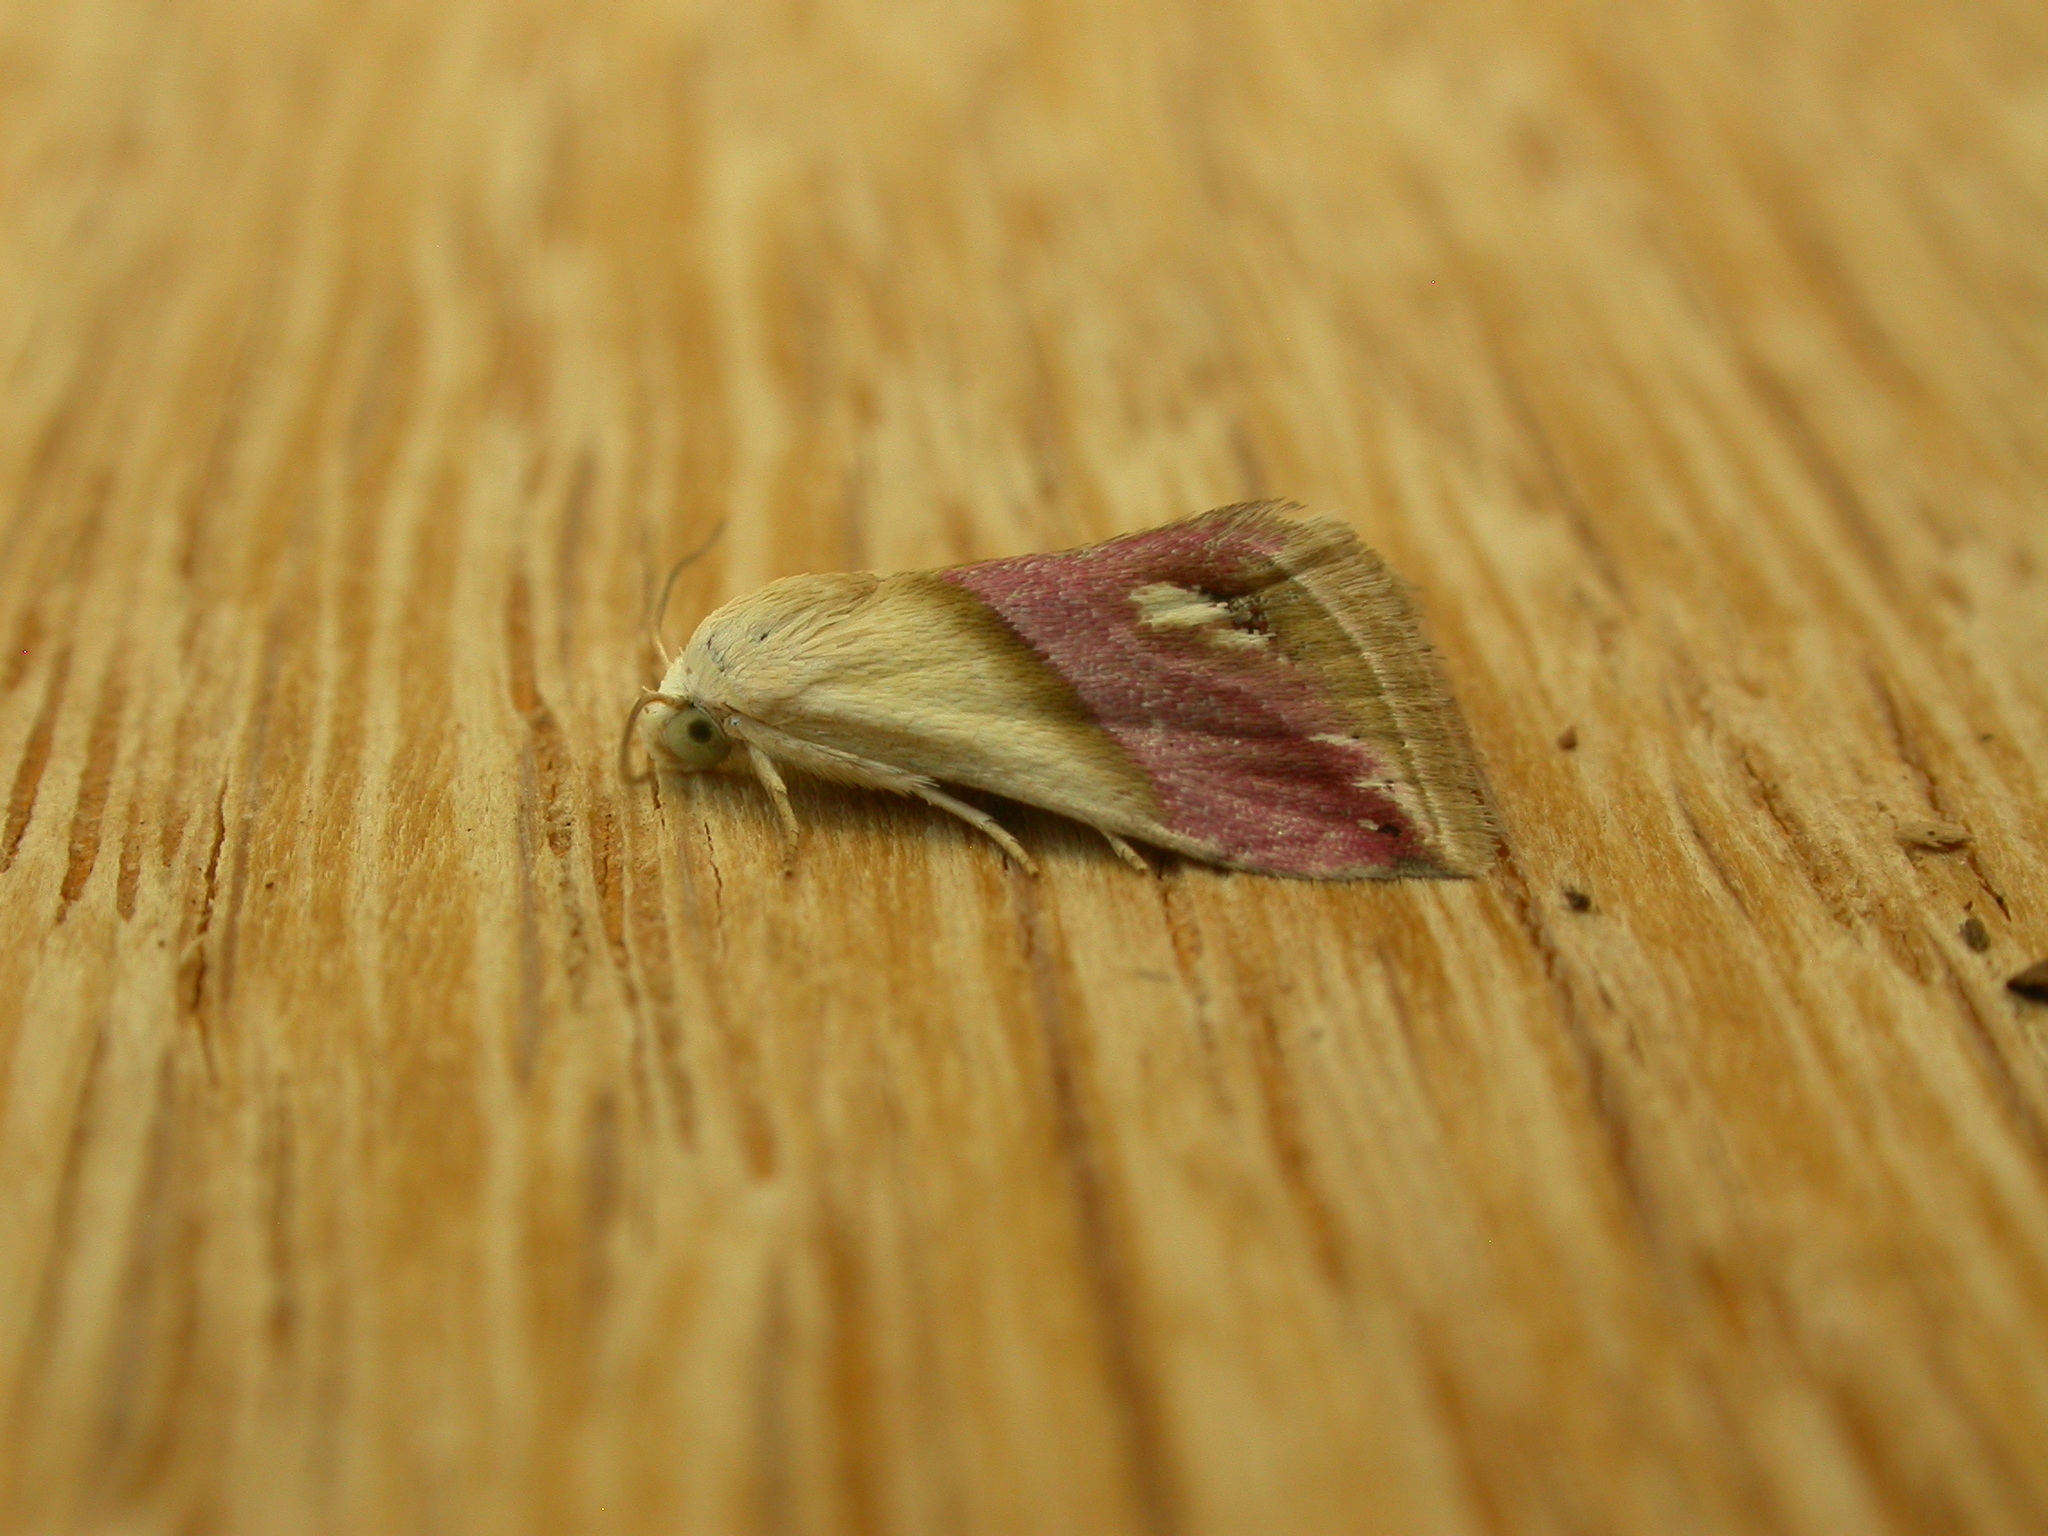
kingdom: Animalia
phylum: Arthropoda
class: Insecta
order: Lepidoptera
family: Noctuidae
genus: Eublemma
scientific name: Eublemma cochylioides
